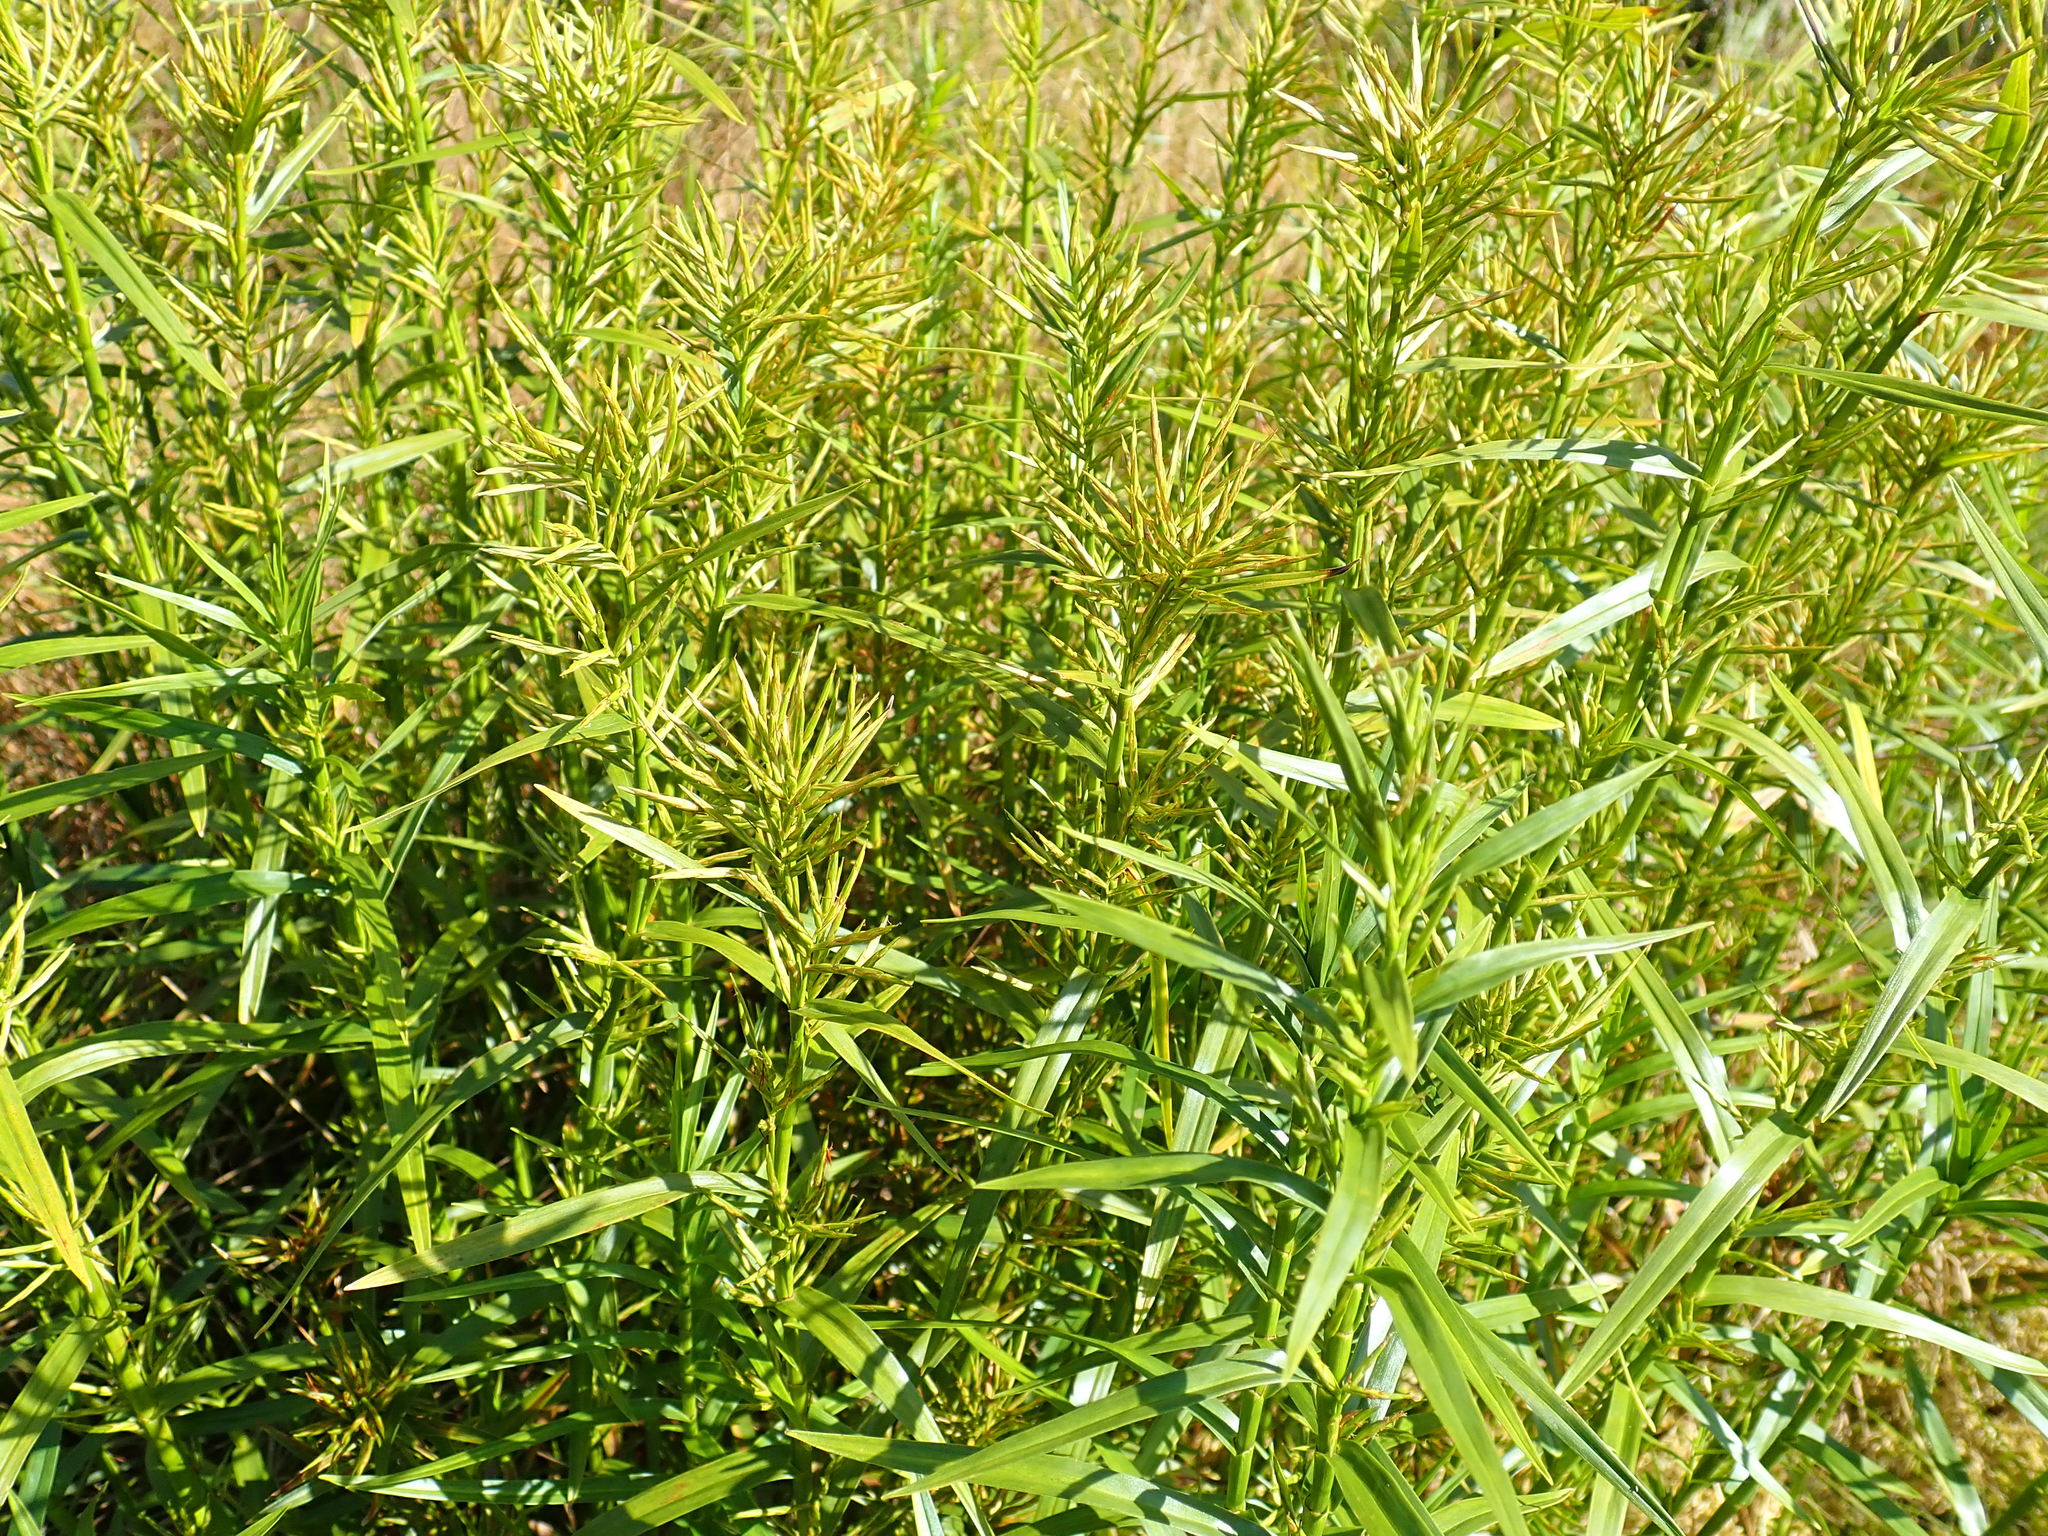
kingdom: Plantae
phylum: Tracheophyta
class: Liliopsida
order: Poales
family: Cyperaceae
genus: Dulichium
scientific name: Dulichium arundinaceum
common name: Three-way sedge
